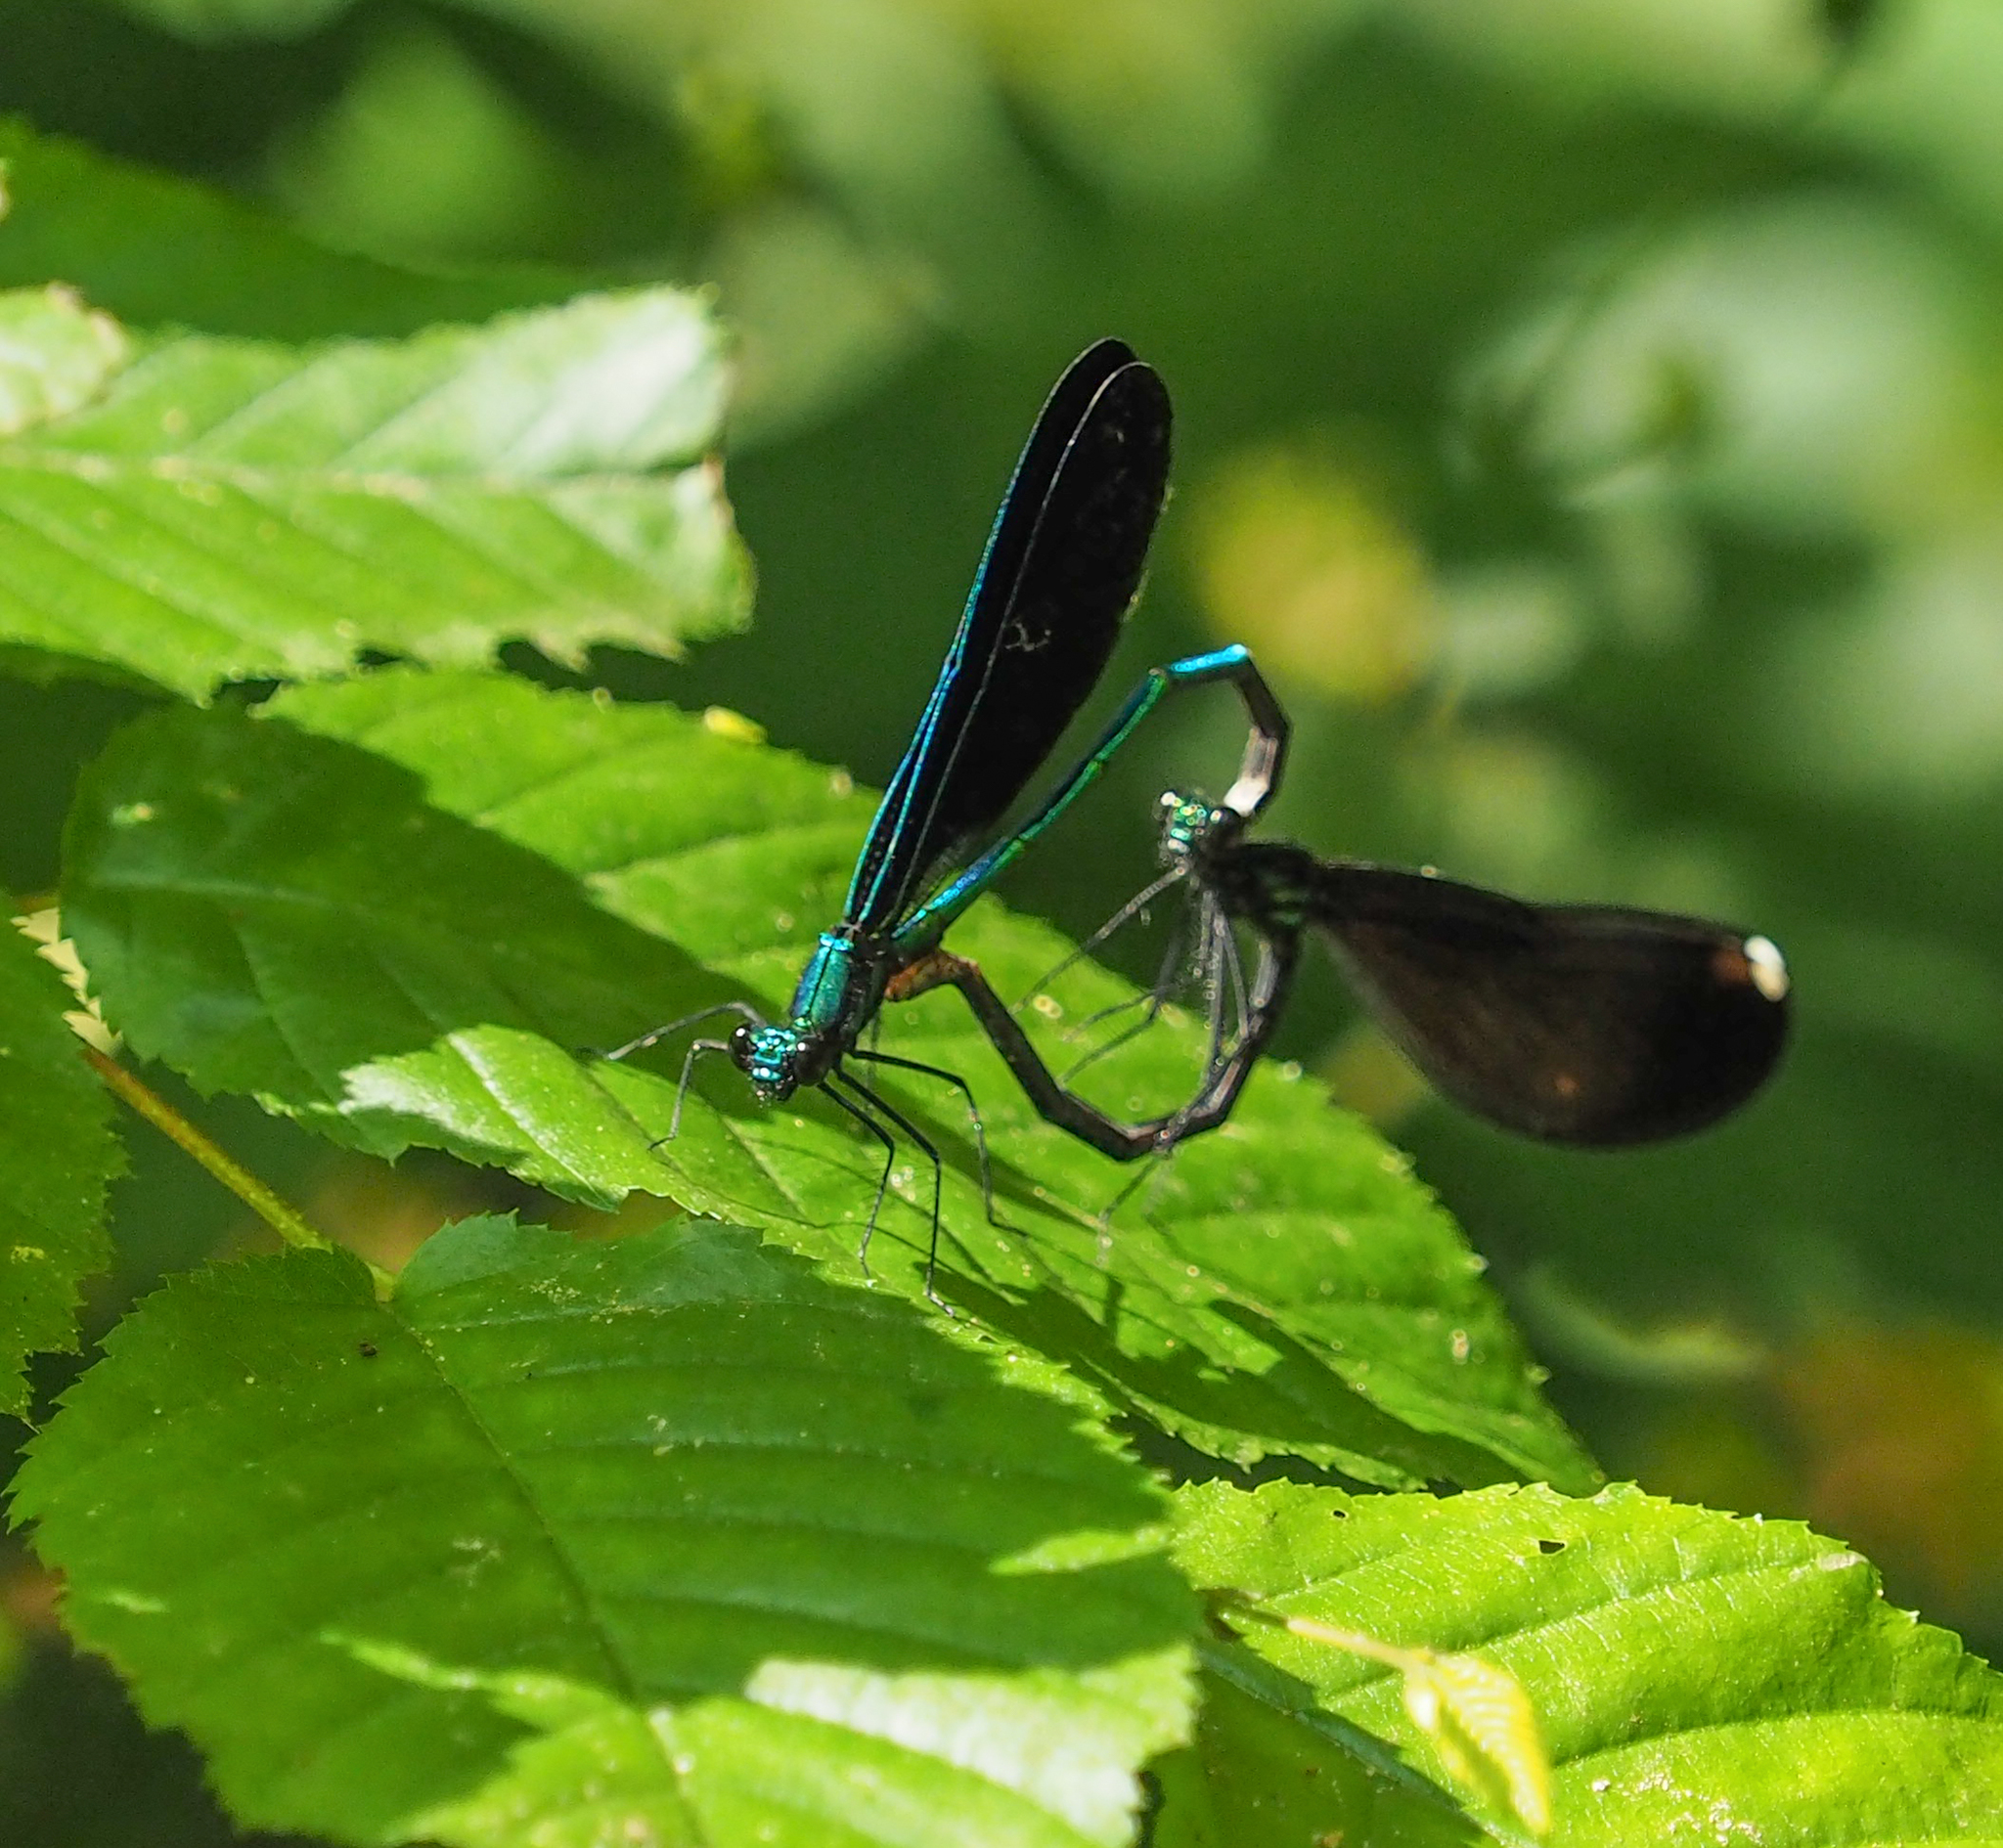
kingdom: Animalia
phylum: Arthropoda
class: Insecta
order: Odonata
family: Calopterygidae
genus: Calopteryx
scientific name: Calopteryx maculata
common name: Ebony jewelwing
